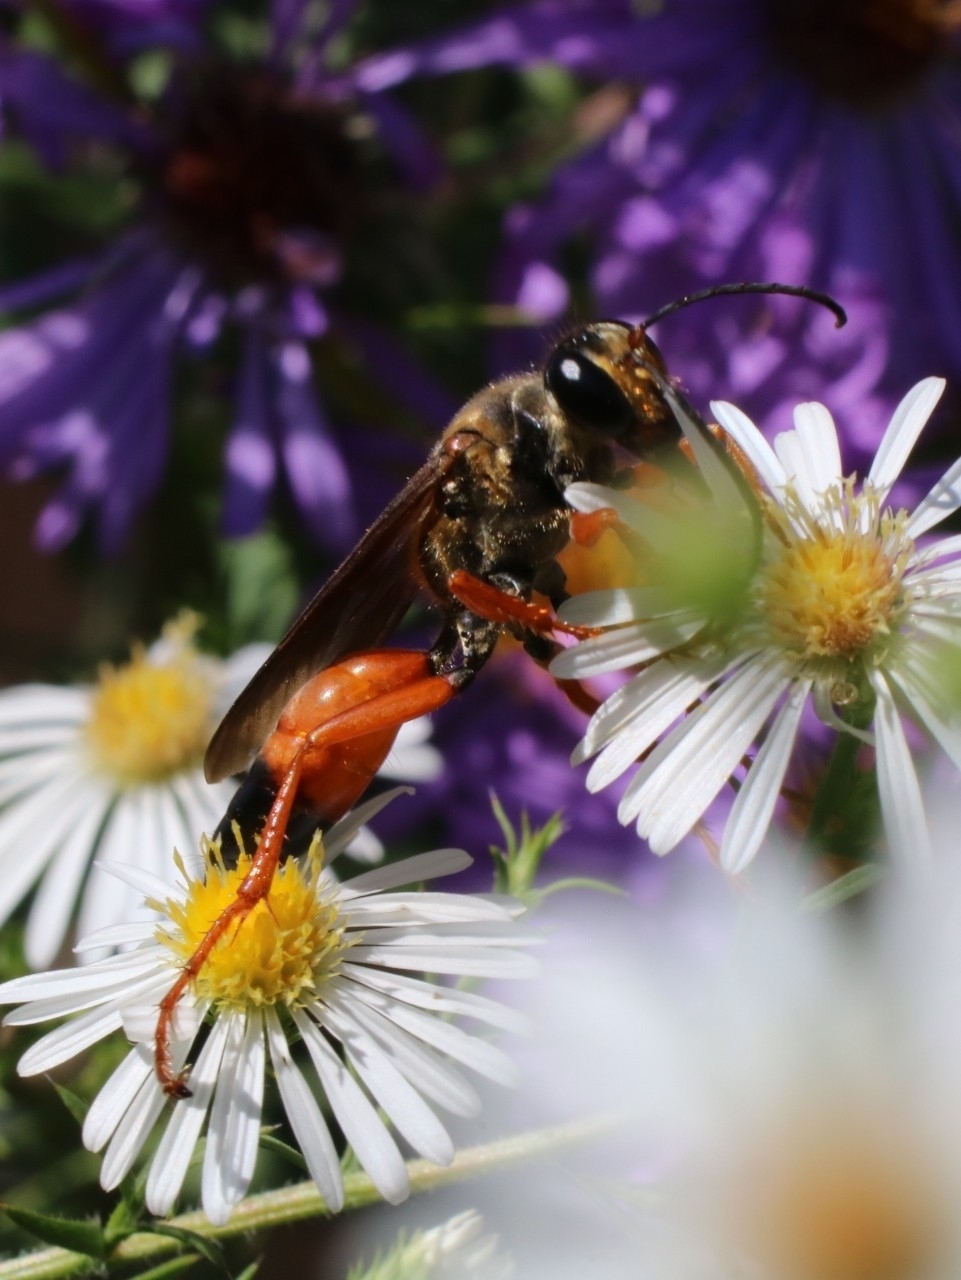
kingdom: Animalia
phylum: Arthropoda
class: Insecta
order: Hymenoptera
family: Sphecidae
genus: Sphex
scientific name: Sphex ichneumoneus
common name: Great golden digger wasp
